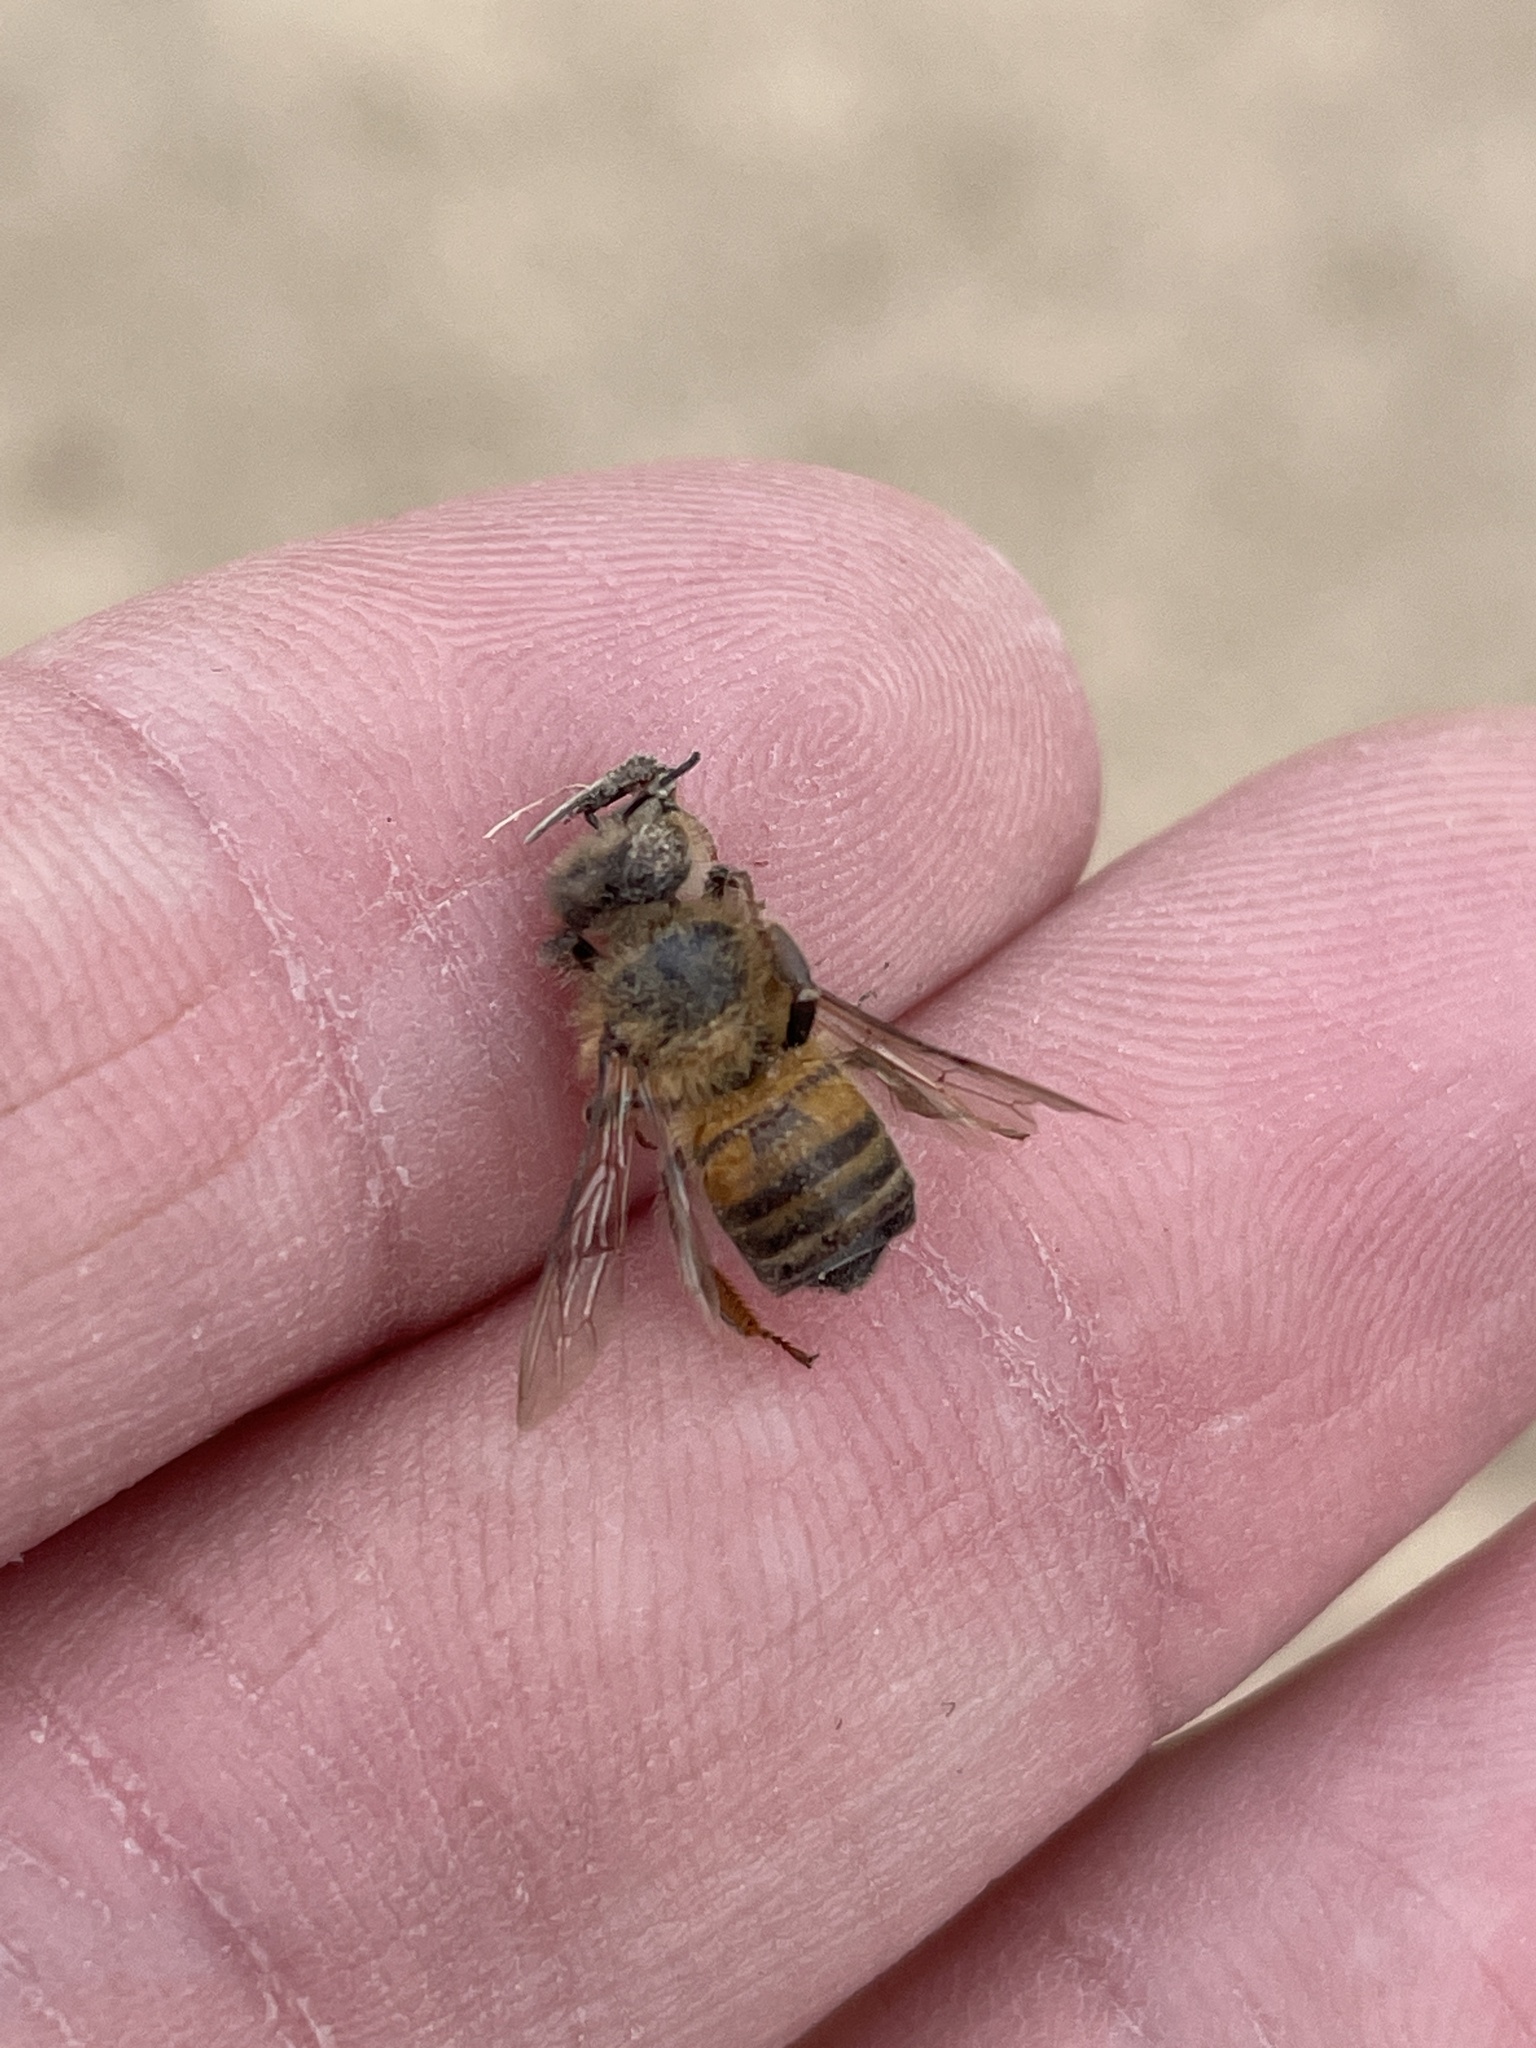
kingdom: Animalia
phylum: Arthropoda
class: Insecta
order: Hymenoptera
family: Apidae
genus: Apis
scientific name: Apis mellifera
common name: Honey bee
